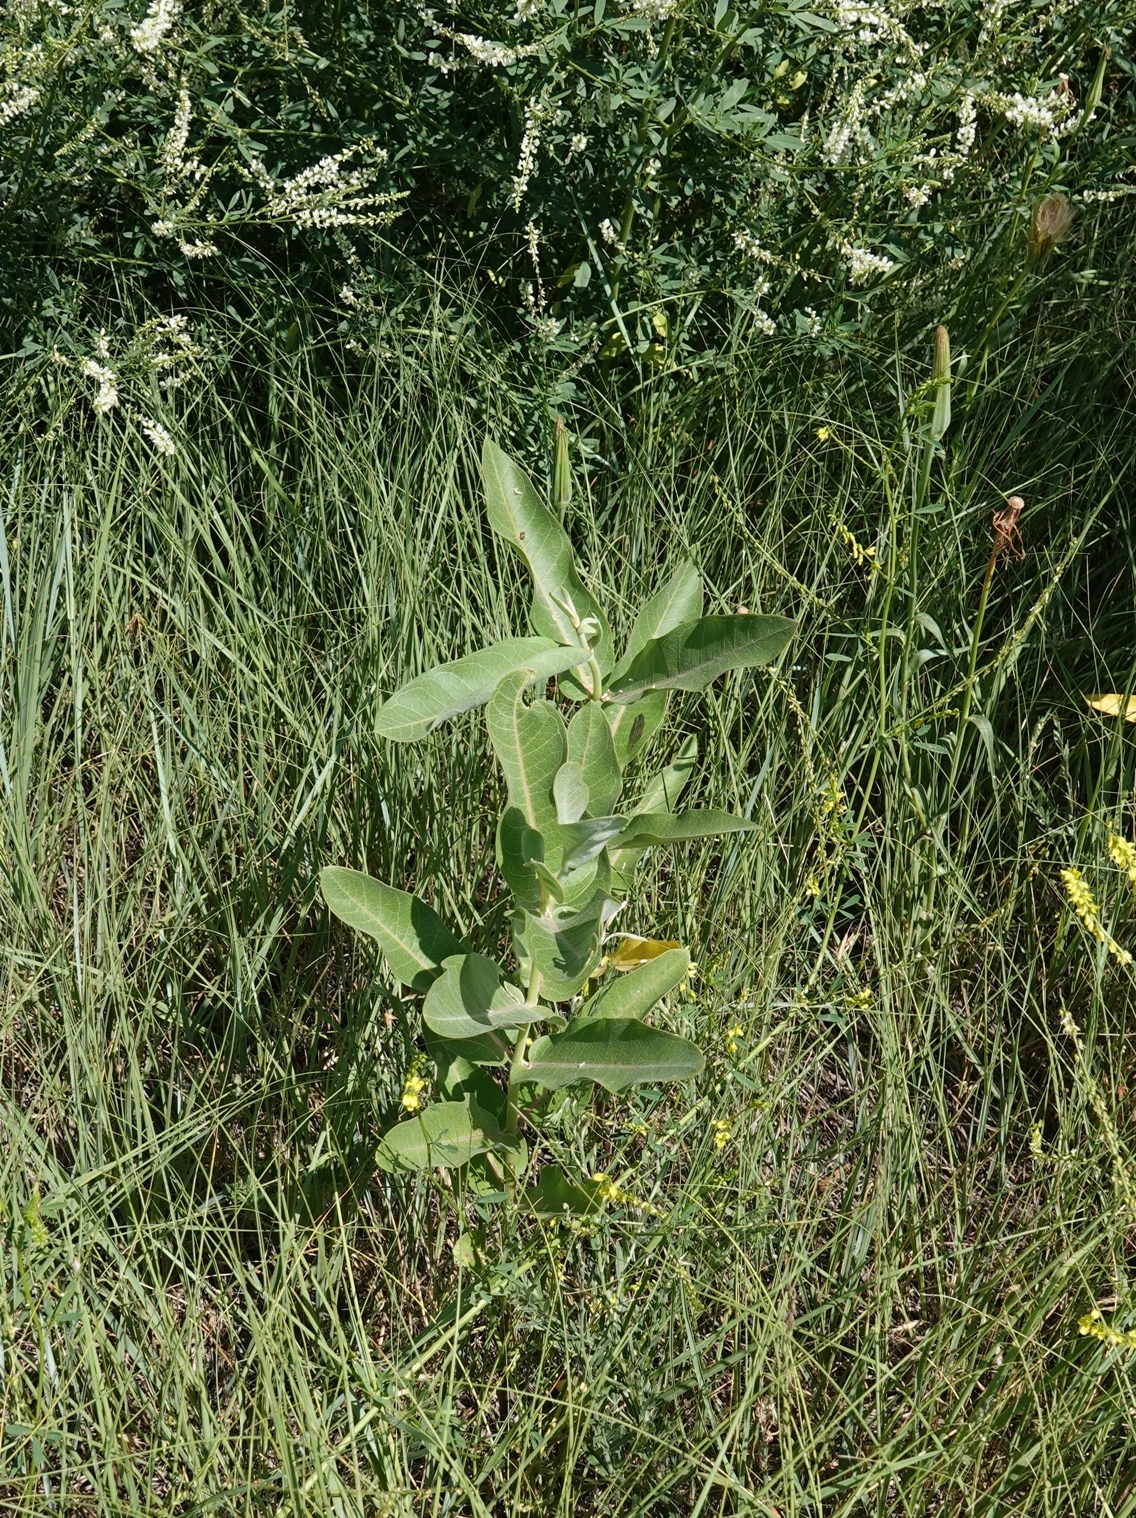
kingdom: Plantae
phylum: Tracheophyta
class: Magnoliopsida
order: Gentianales
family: Apocynaceae
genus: Asclepias
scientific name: Asclepias speciosa
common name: Showy milkweed
